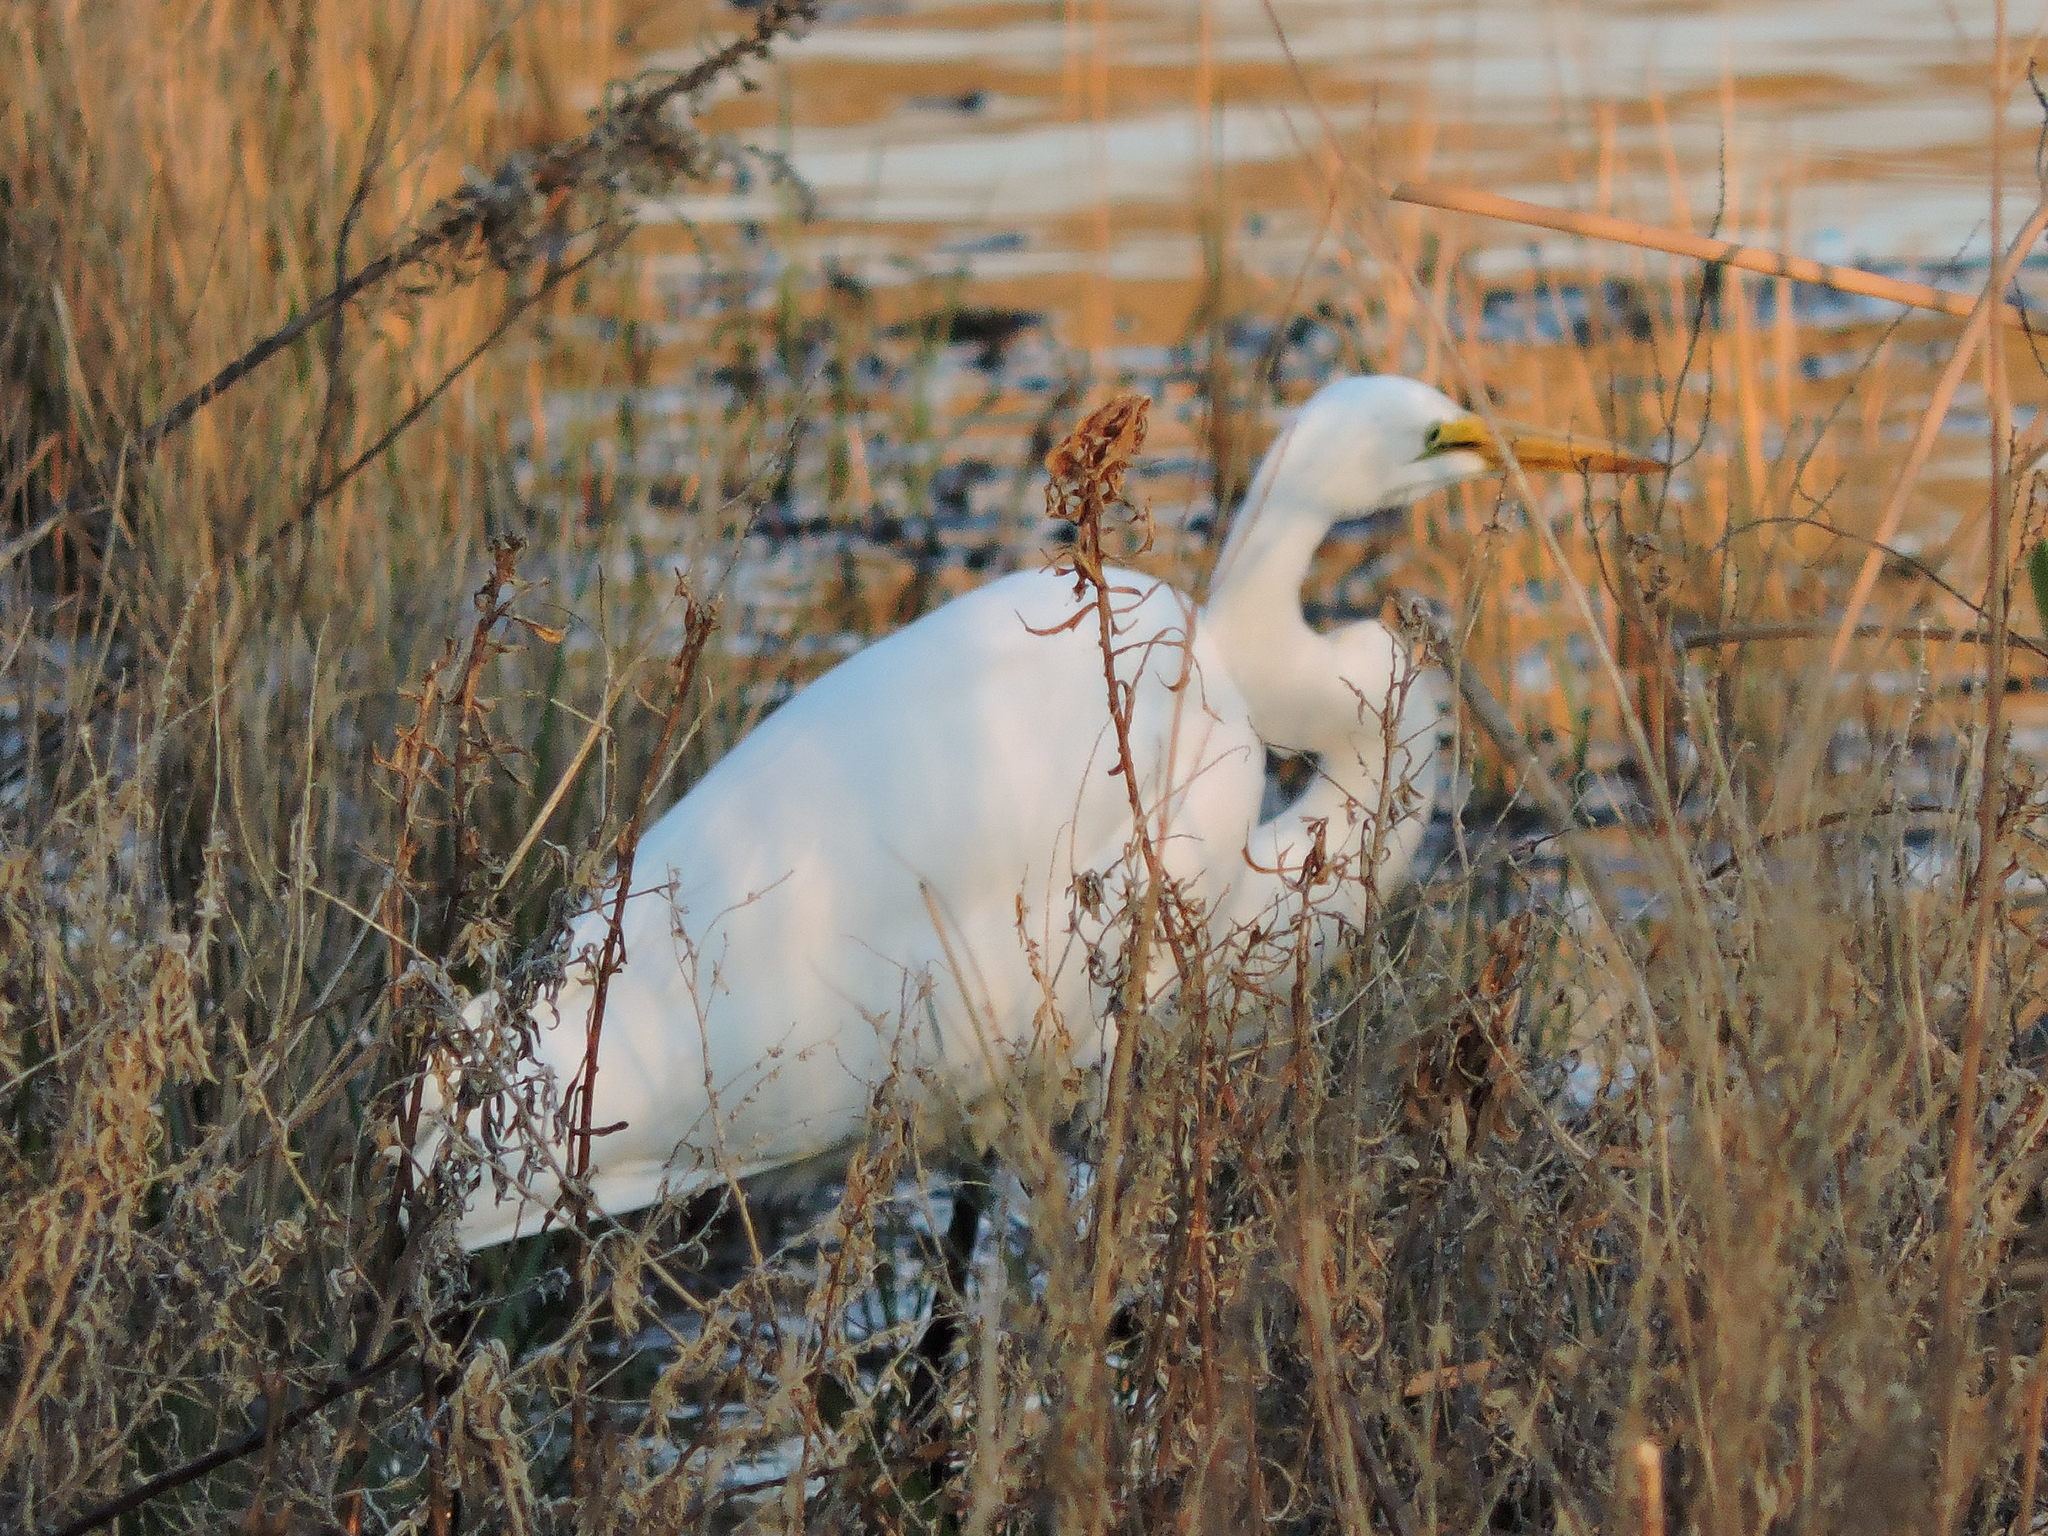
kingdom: Animalia
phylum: Chordata
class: Aves
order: Pelecaniformes
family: Ardeidae
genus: Ardea
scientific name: Ardea alba
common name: Great egret
